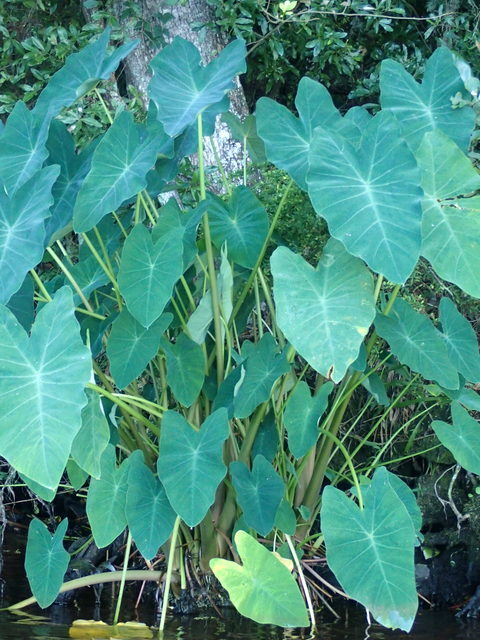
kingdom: Plantae
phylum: Tracheophyta
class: Liliopsida
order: Alismatales
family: Araceae
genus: Colocasia
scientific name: Colocasia esculenta
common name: Taro
